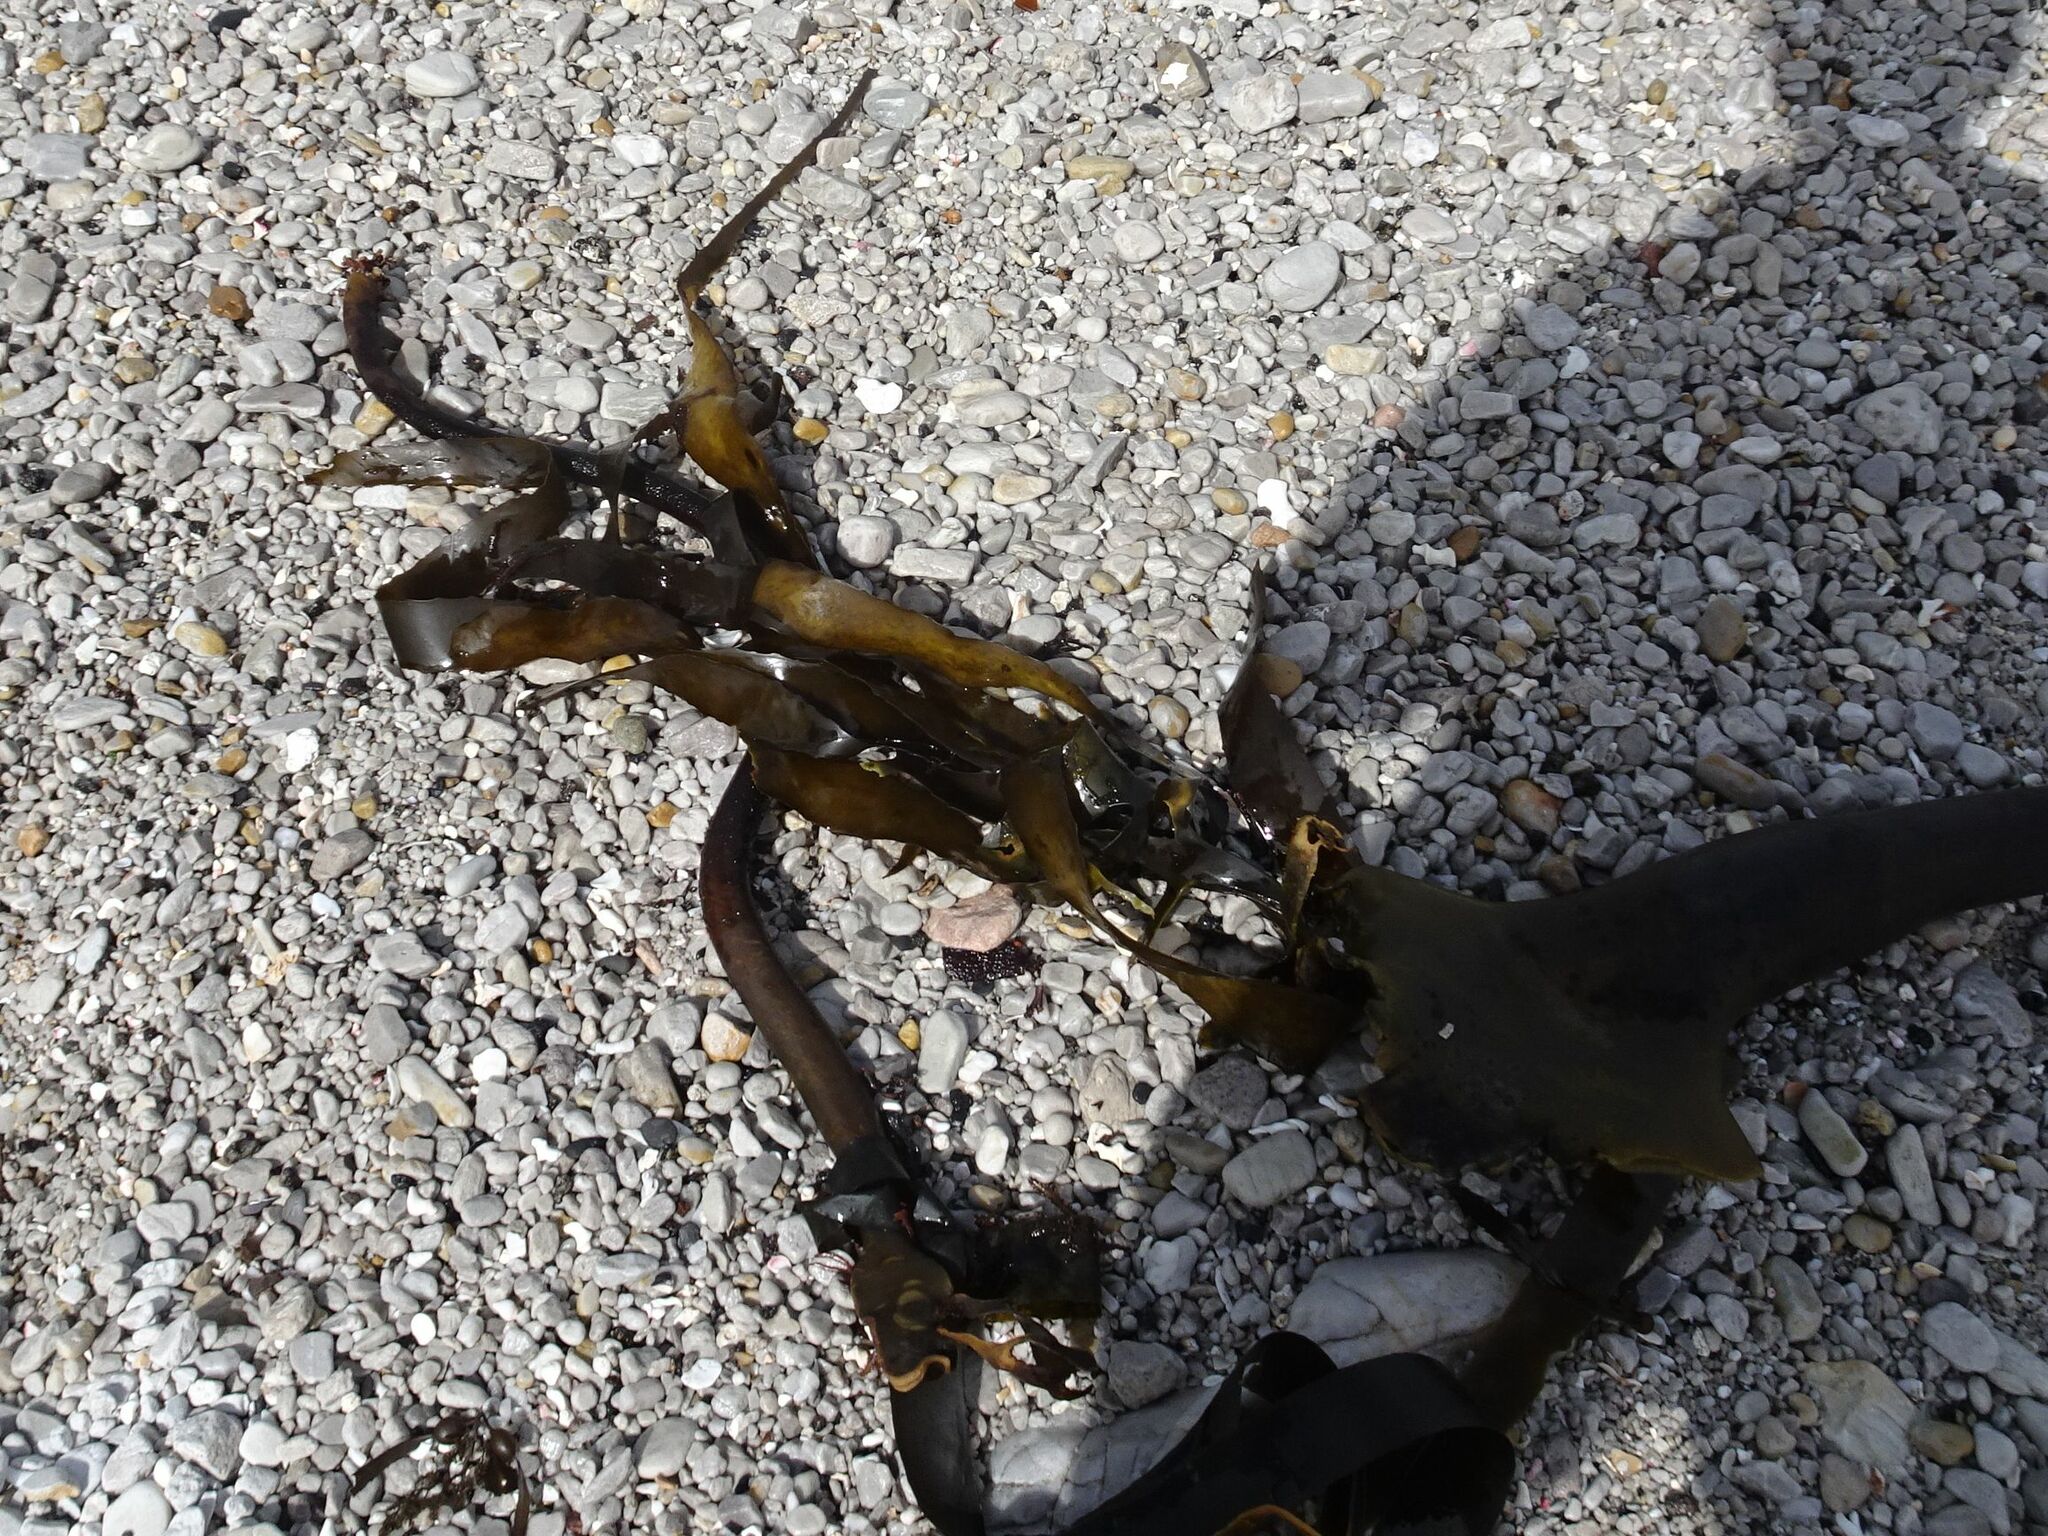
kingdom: Chromista
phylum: Ochrophyta
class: Phaeophyceae
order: Laminariales
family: Lessoniaceae
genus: Ecklonia
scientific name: Ecklonia
